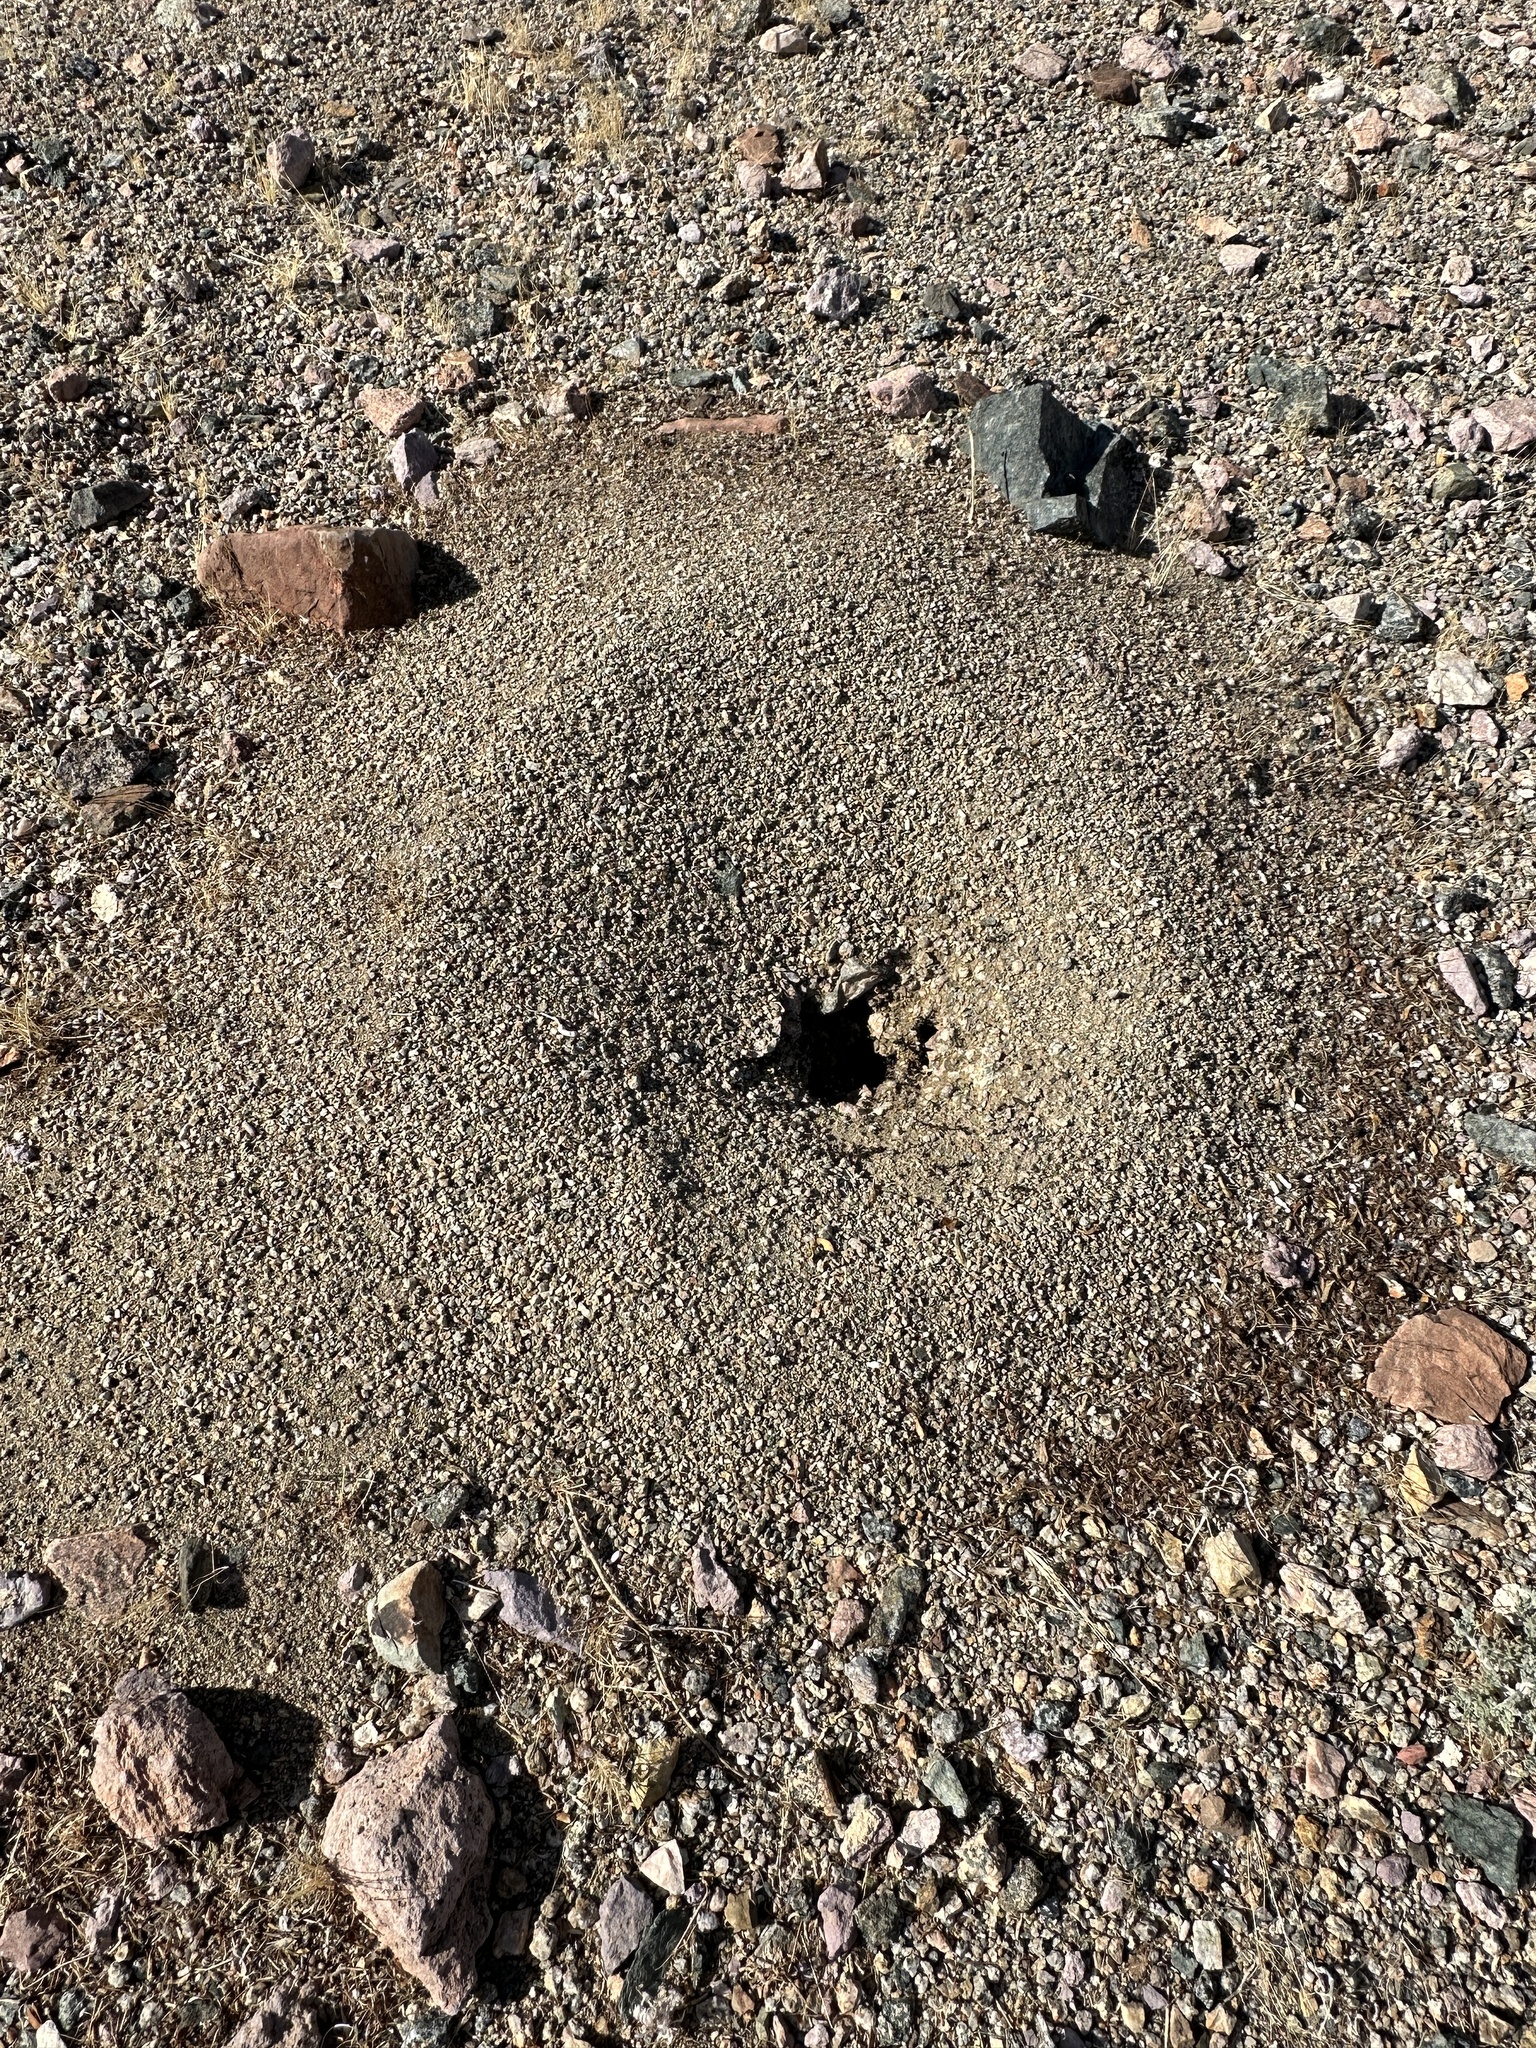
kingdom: Animalia
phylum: Arthropoda
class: Insecta
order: Hymenoptera
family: Formicidae
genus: Messor
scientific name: Messor pergandei
